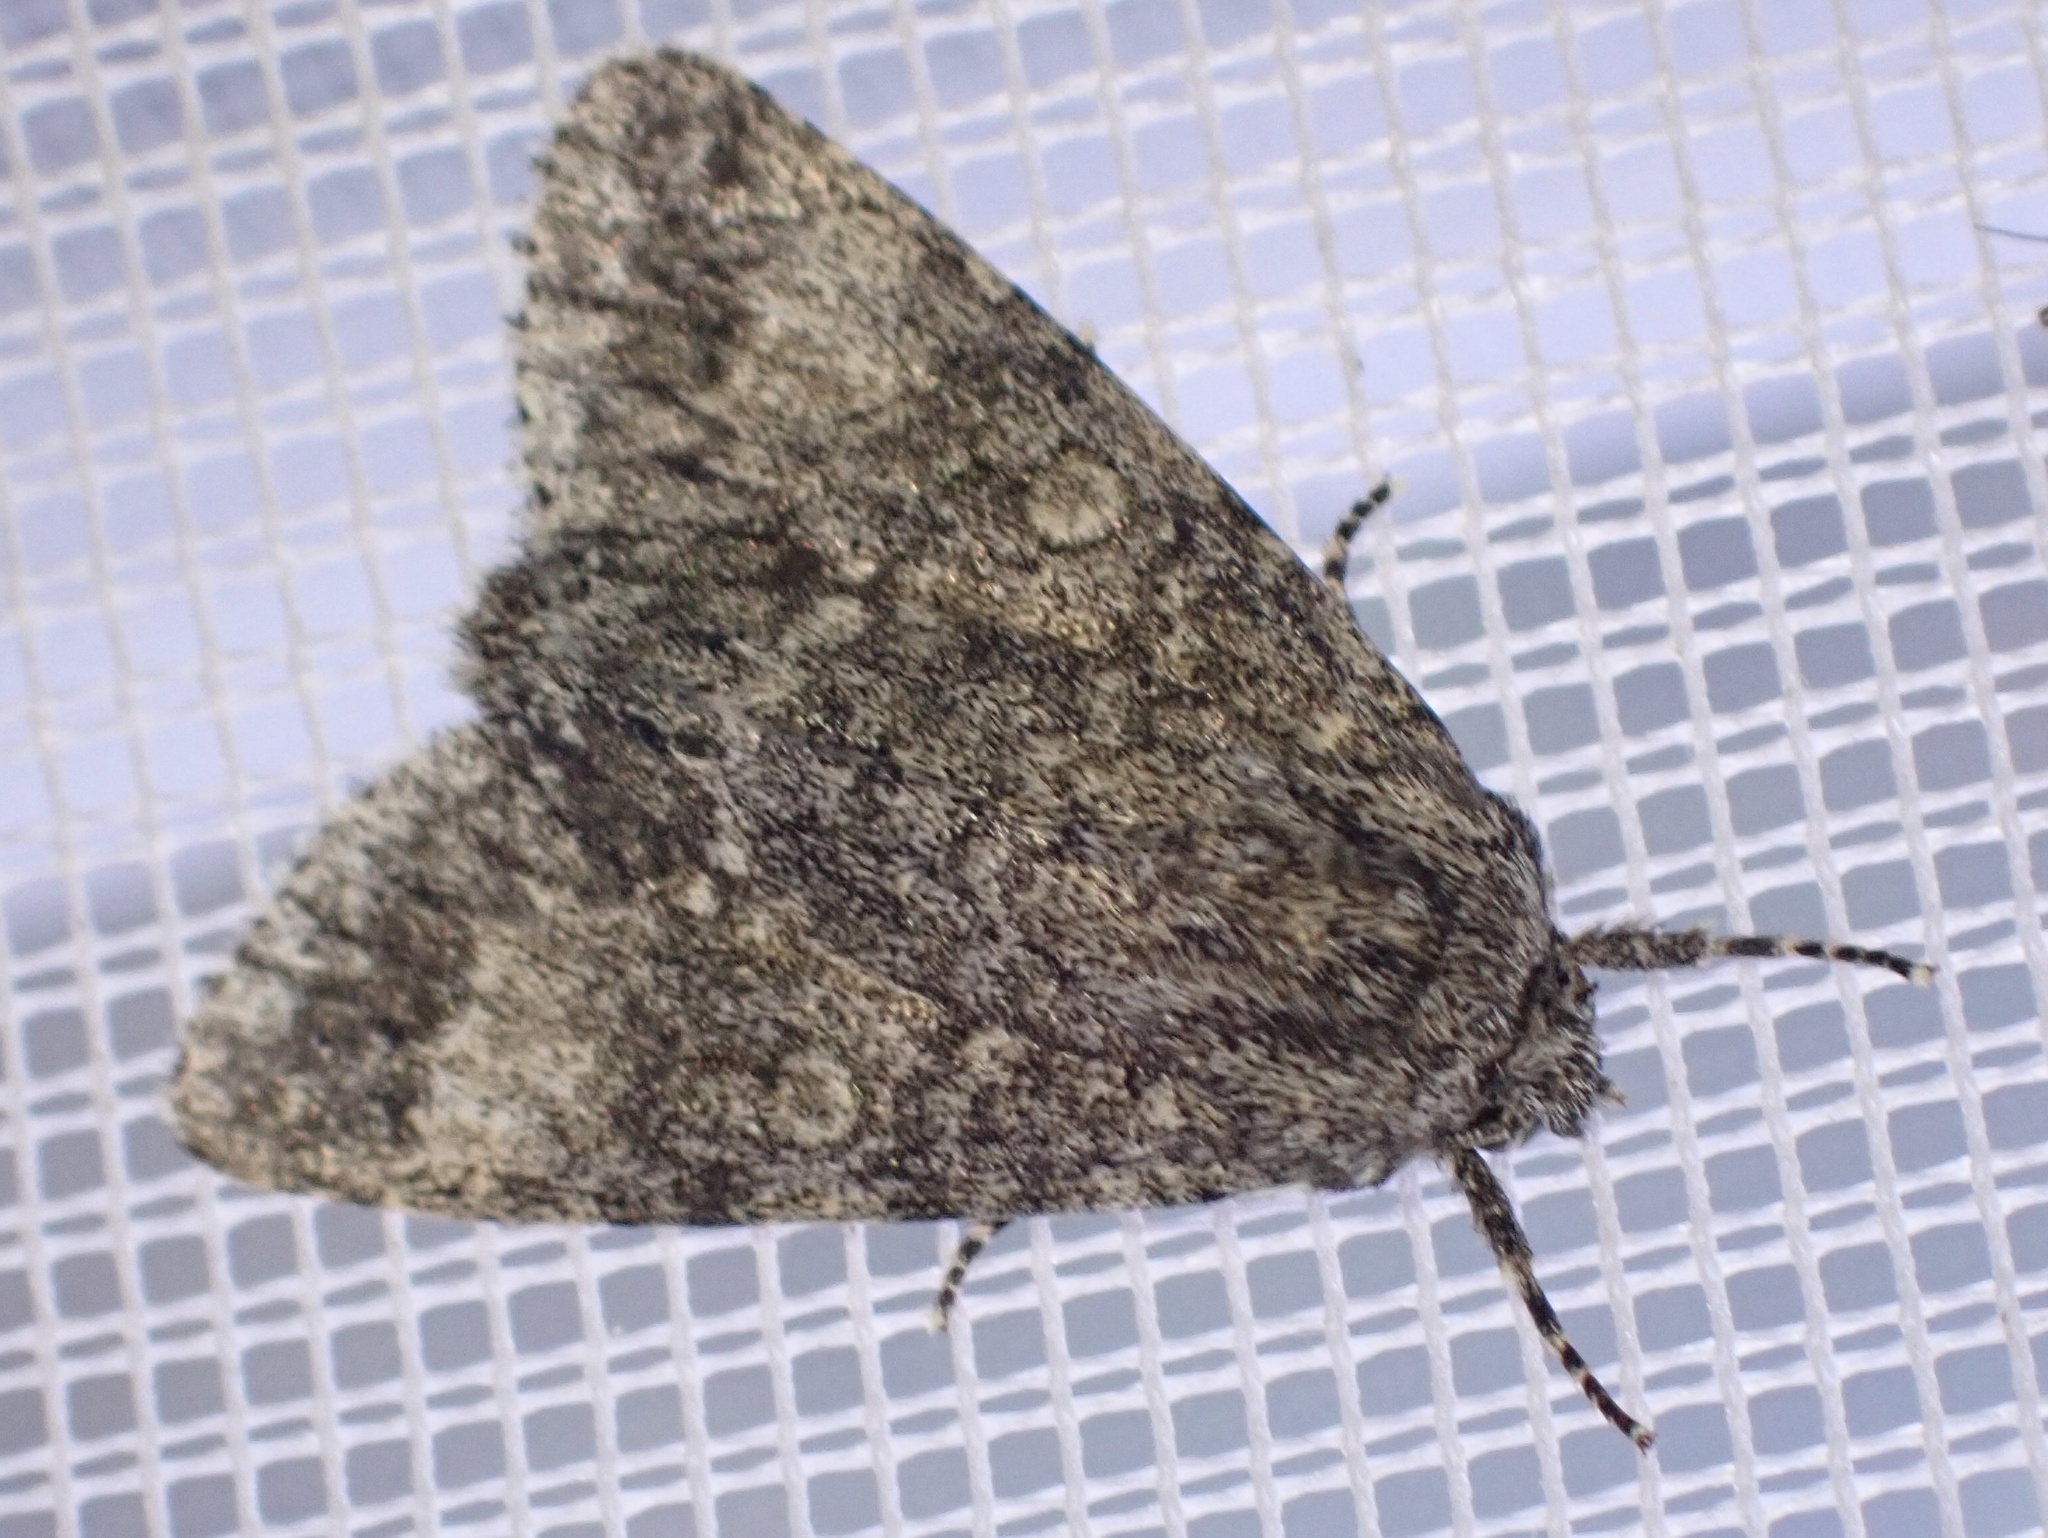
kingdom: Animalia
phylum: Arthropoda
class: Insecta
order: Lepidoptera
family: Noctuidae
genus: Acronicta
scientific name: Acronicta megacephala
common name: Poplar grey
